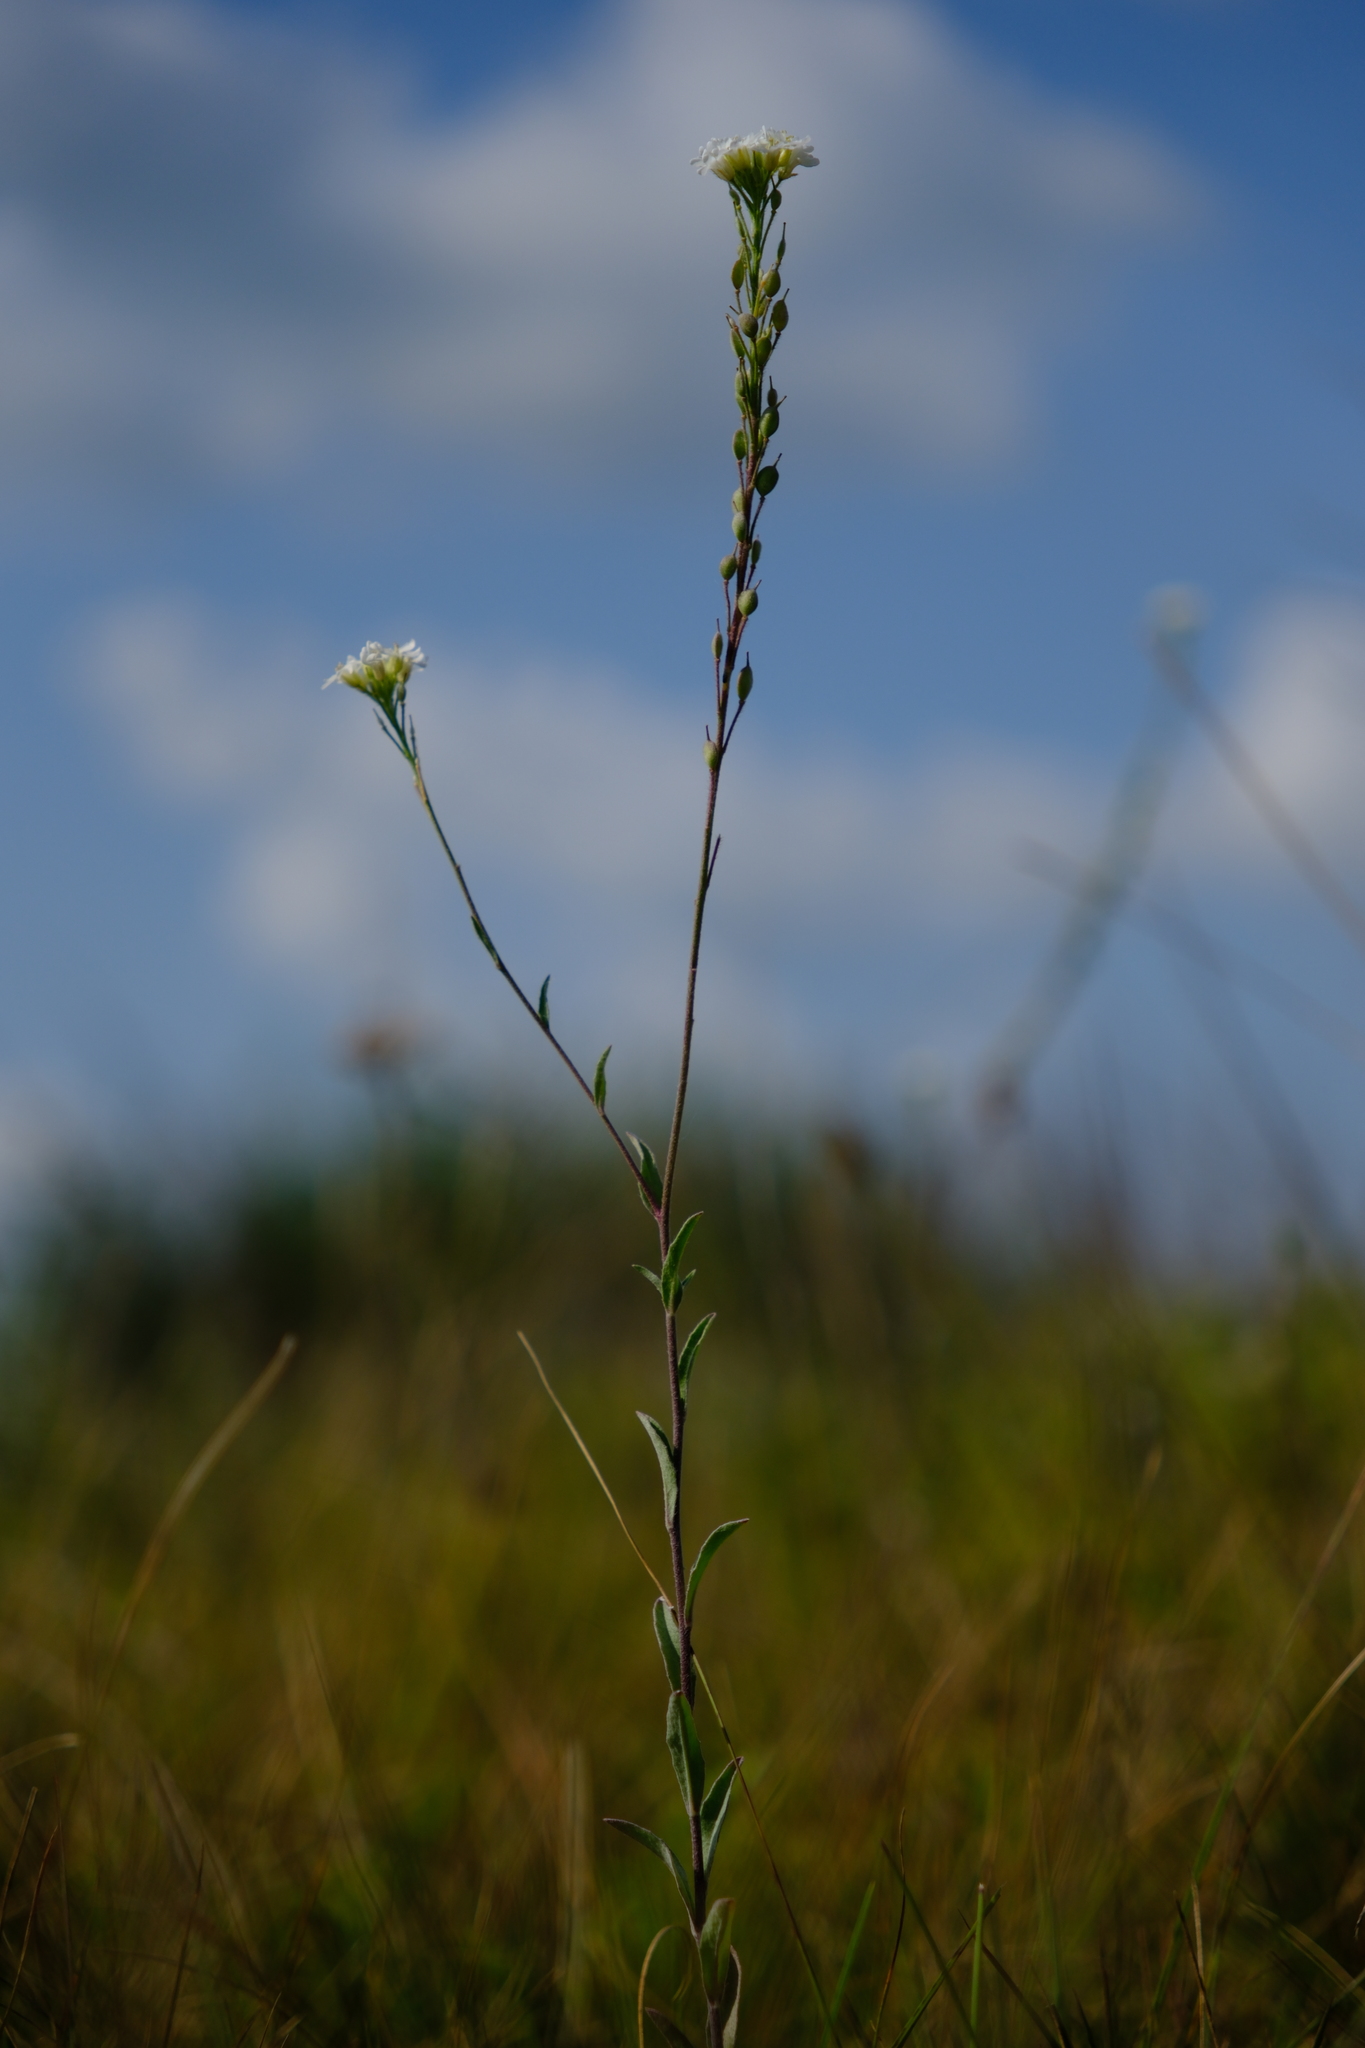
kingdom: Plantae
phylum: Tracheophyta
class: Magnoliopsida
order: Brassicales
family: Brassicaceae
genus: Berteroa
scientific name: Berteroa incana
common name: Hoary alison
